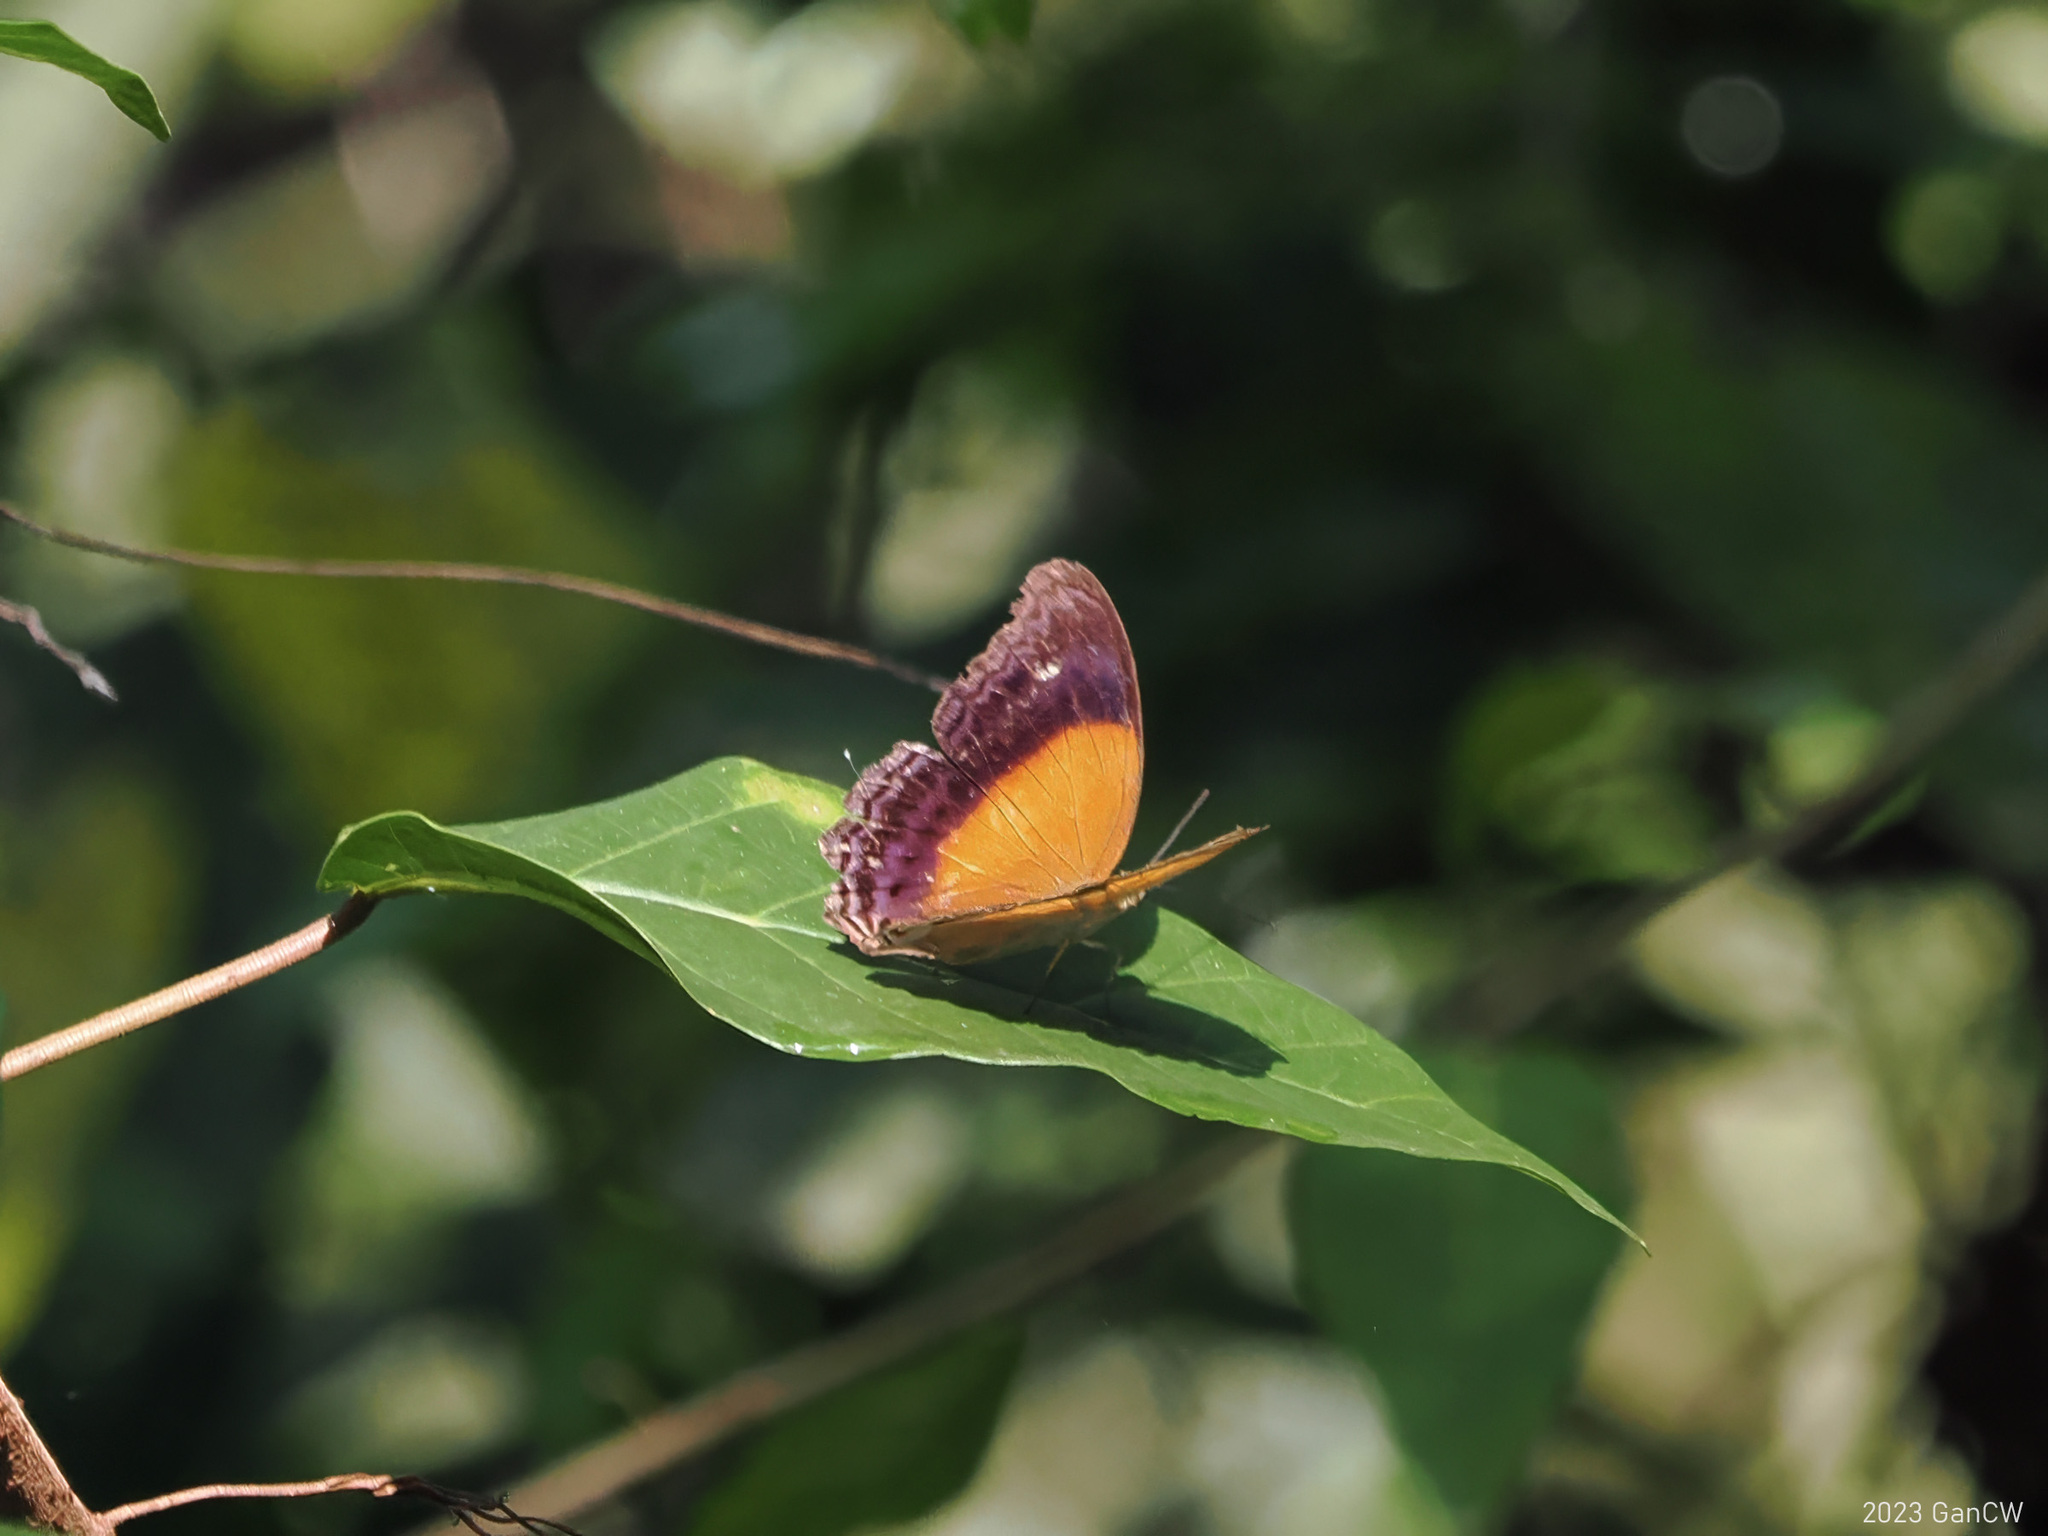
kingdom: Animalia
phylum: Arthropoda
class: Insecta
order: Lepidoptera
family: Nymphalidae
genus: Cirrochroa
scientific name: Cirrochroa semiramis
